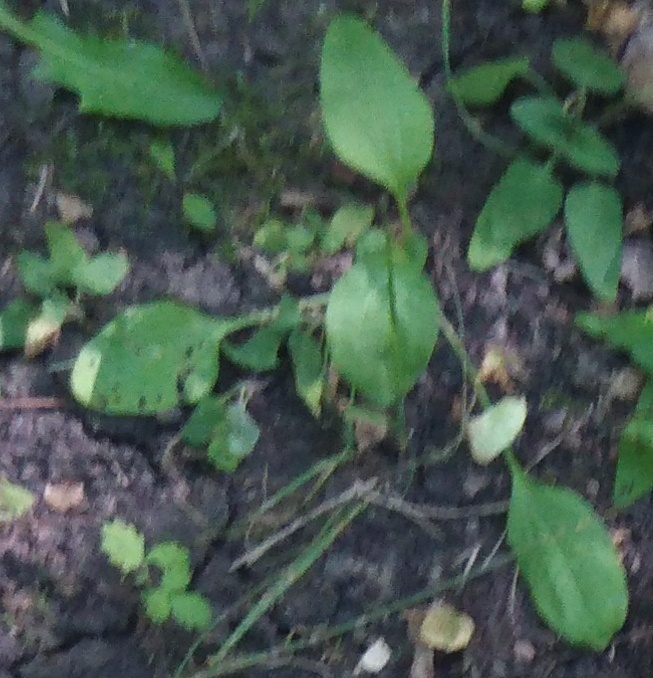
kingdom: Plantae
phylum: Tracheophyta
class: Magnoliopsida
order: Lamiales
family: Plantaginaceae
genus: Plantago
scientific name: Plantago major
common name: Common plantain
